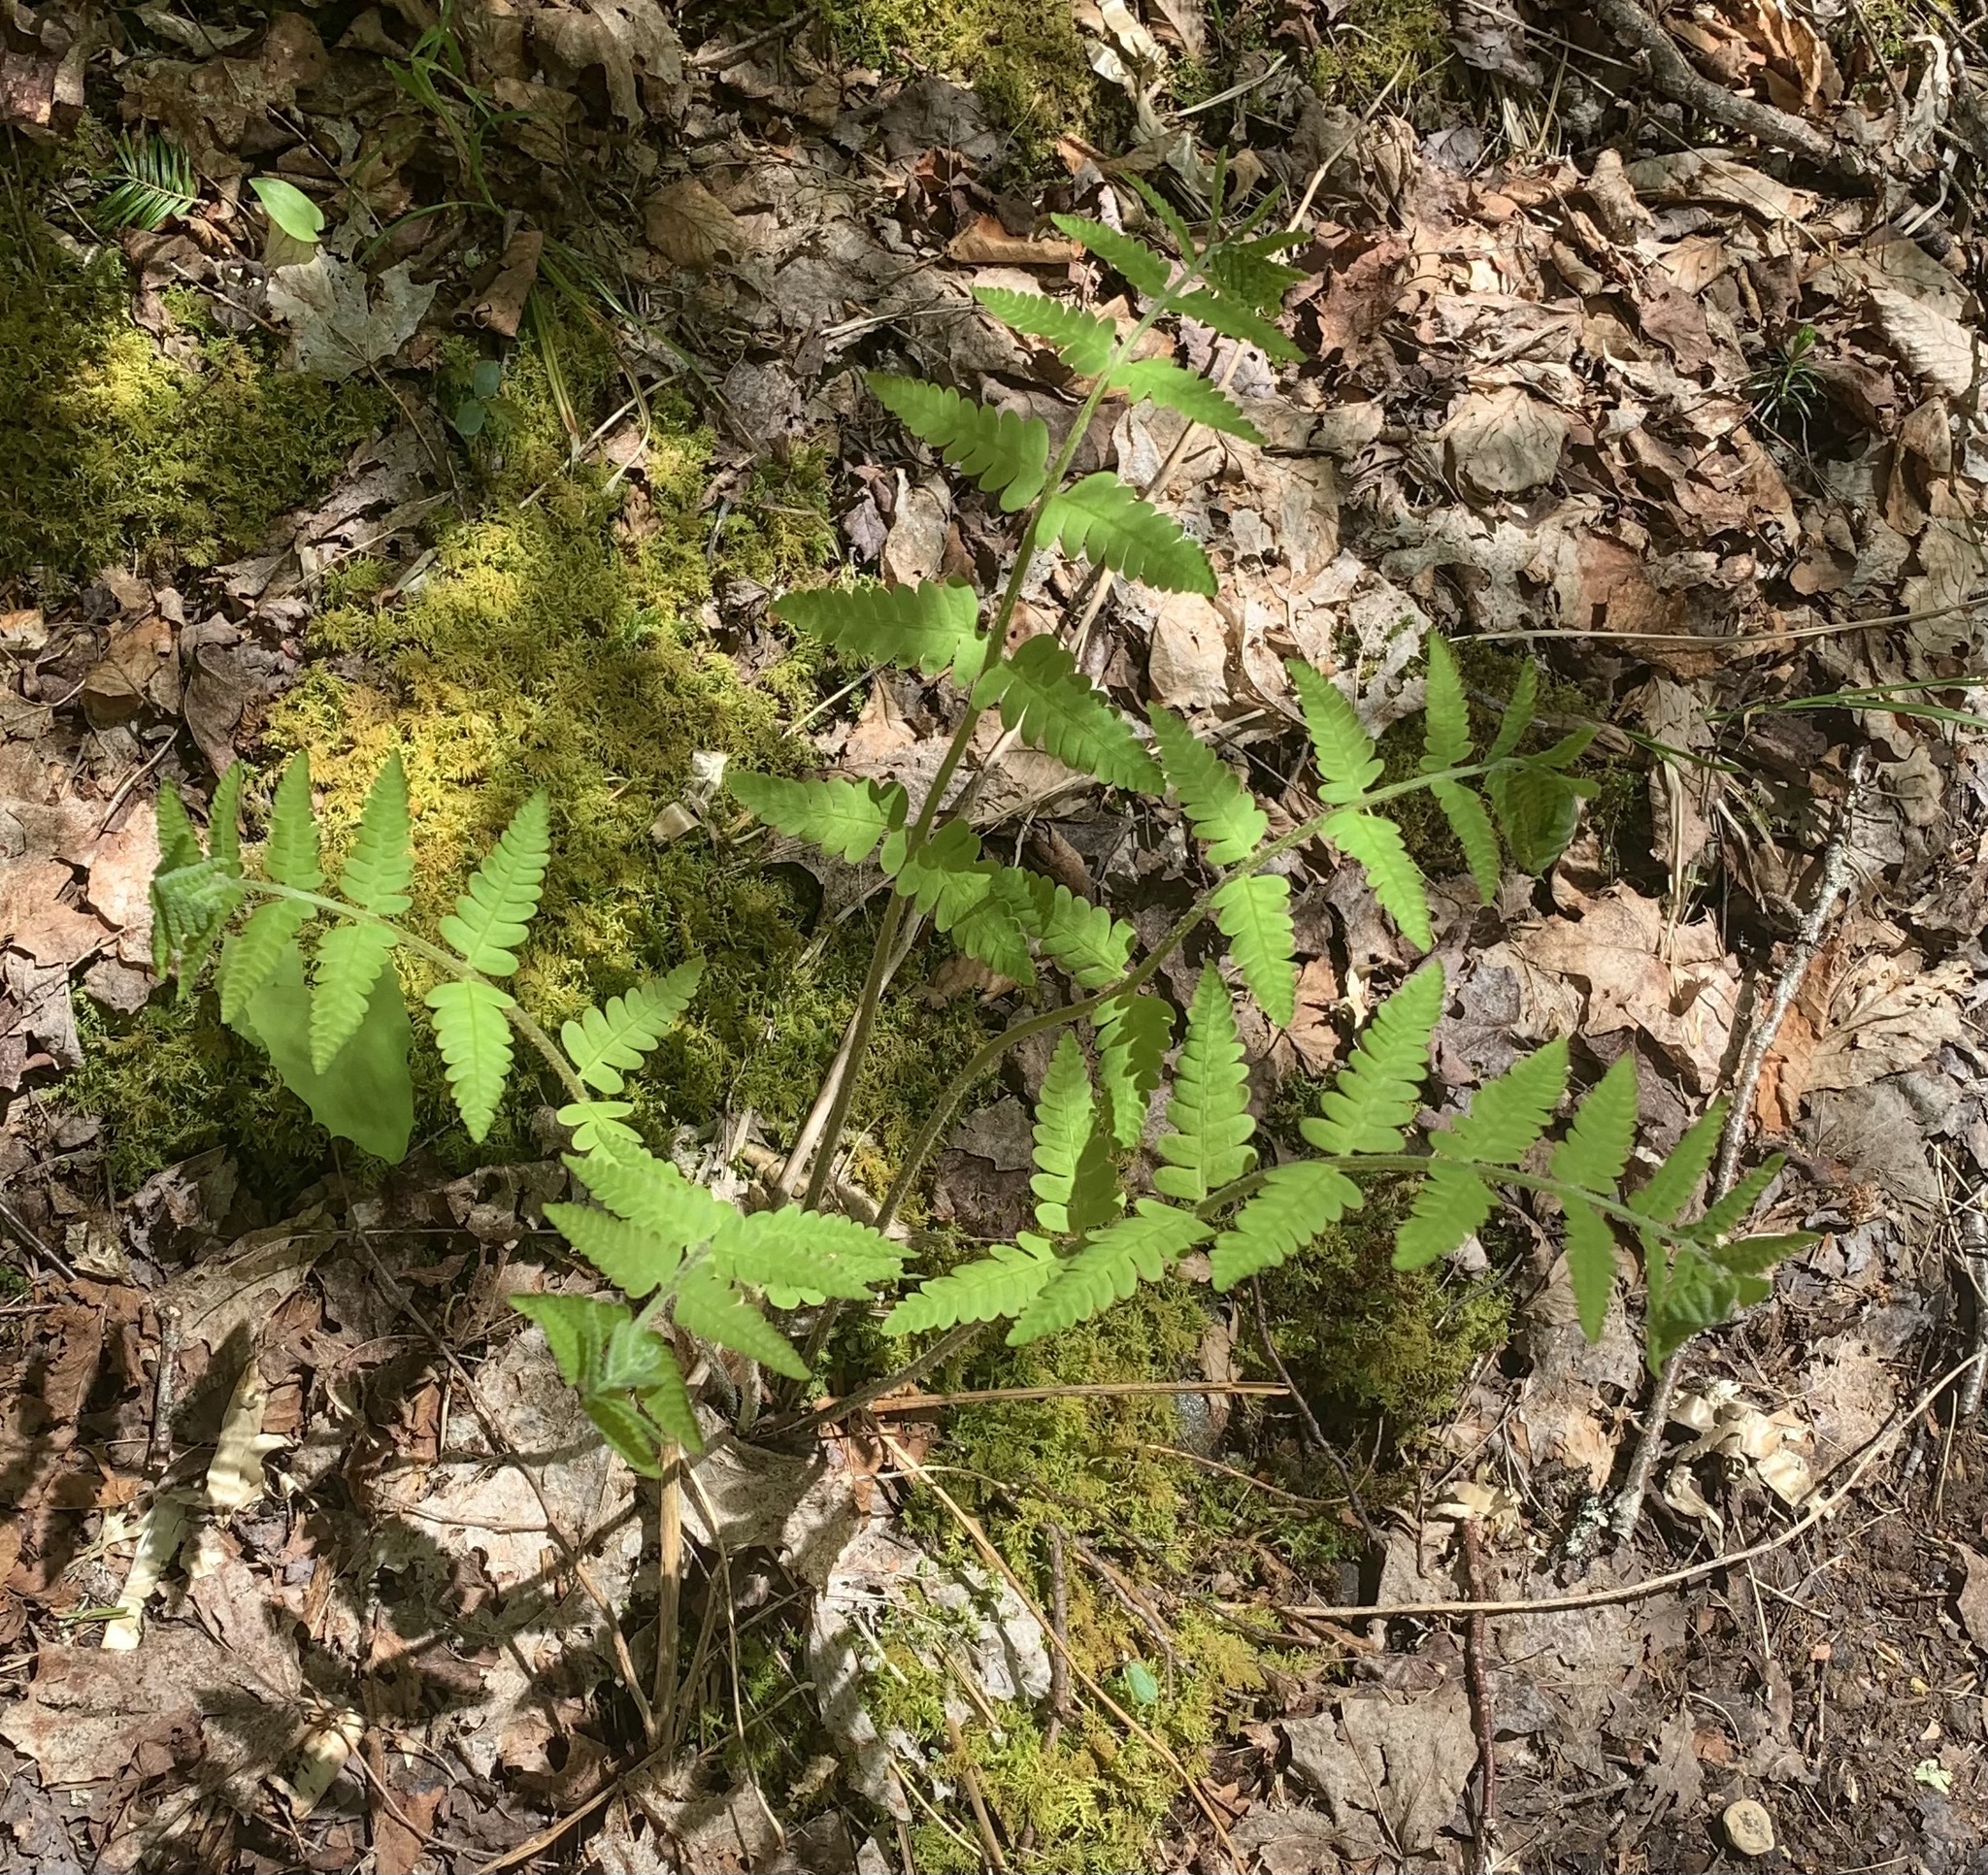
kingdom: Plantae
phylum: Tracheophyta
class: Polypodiopsida
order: Osmundales
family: Osmundaceae
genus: Osmundastrum
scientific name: Osmundastrum cinnamomeum
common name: Cinnamon fern
